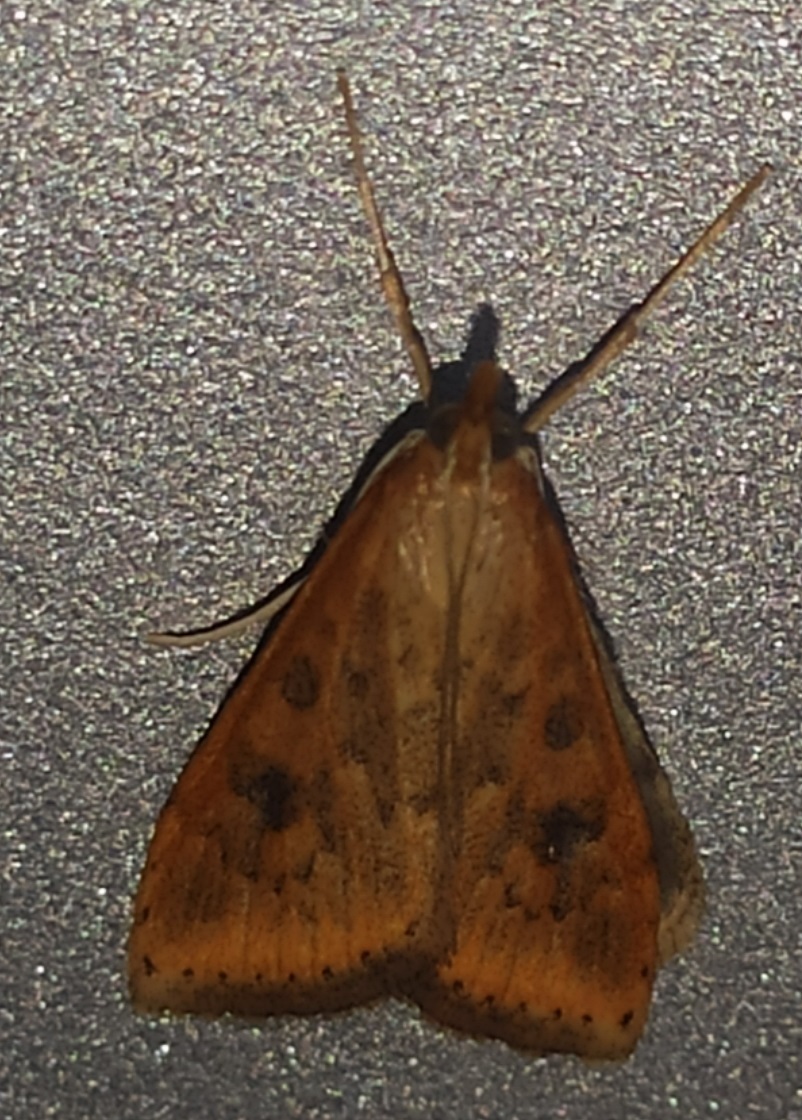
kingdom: Animalia
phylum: Arthropoda
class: Insecta
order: Lepidoptera
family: Crambidae
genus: Udea
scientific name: Udea ferrugalis
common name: Rusty dot
